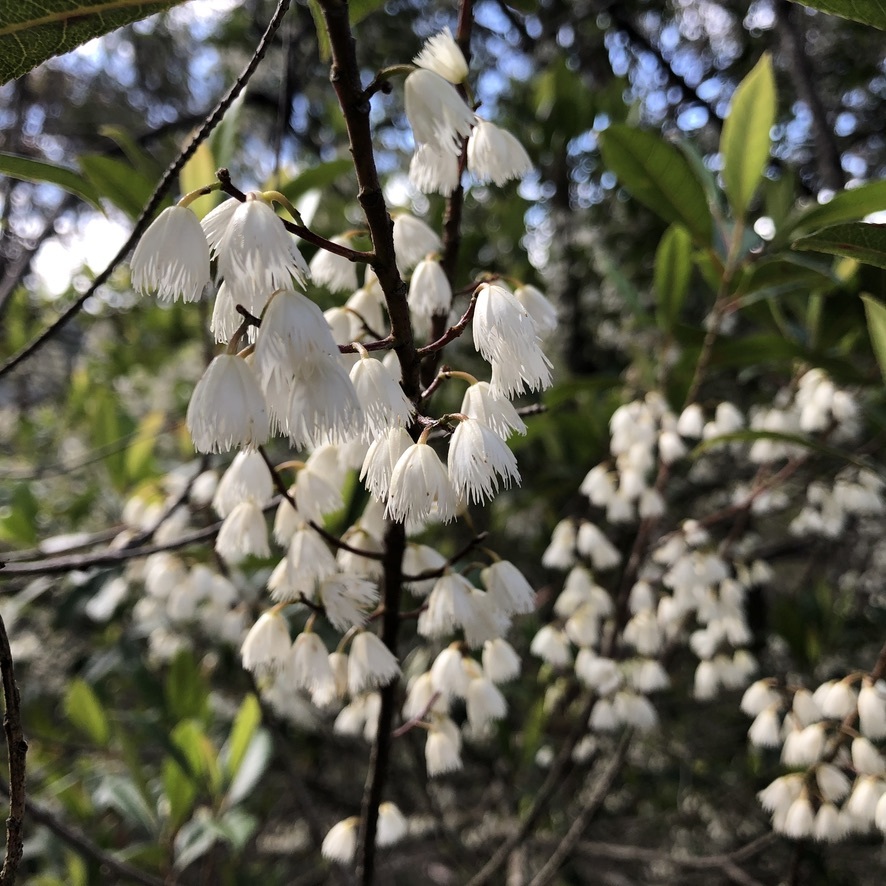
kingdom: Plantae
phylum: Tracheophyta
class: Magnoliopsida
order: Oxalidales
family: Elaeocarpaceae
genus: Elaeocarpus
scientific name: Elaeocarpus reticulatus
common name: Ash quandong
